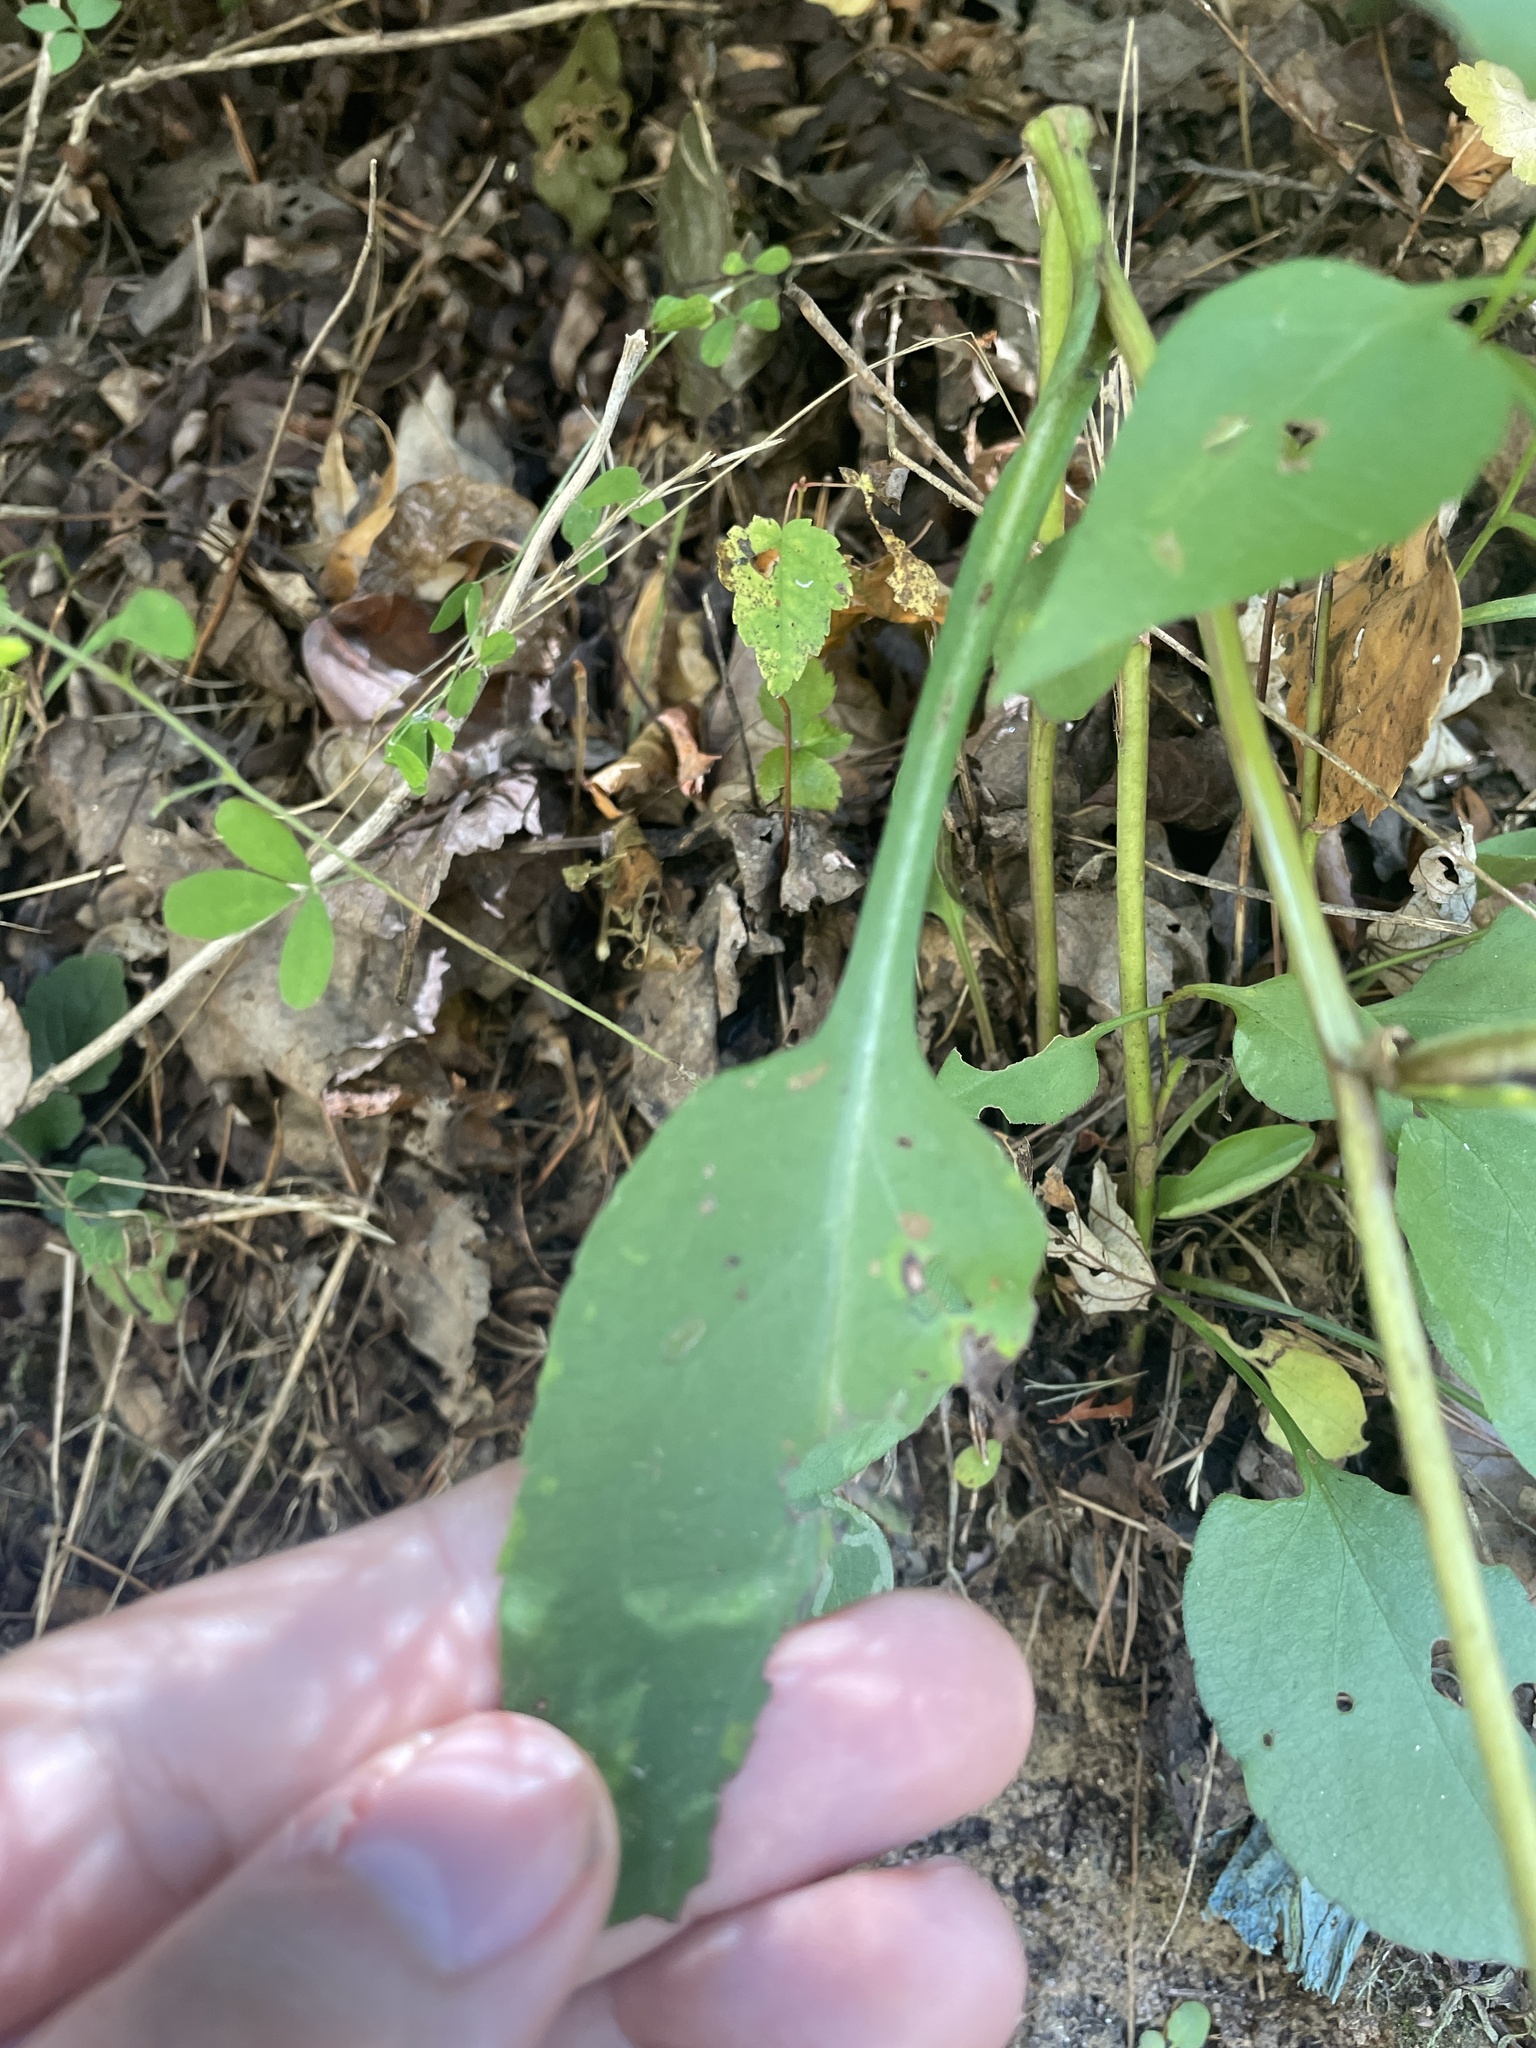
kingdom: Plantae
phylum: Tracheophyta
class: Magnoliopsida
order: Asterales
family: Asteraceae
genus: Symphyotrichum
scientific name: Symphyotrichum retroflexum
